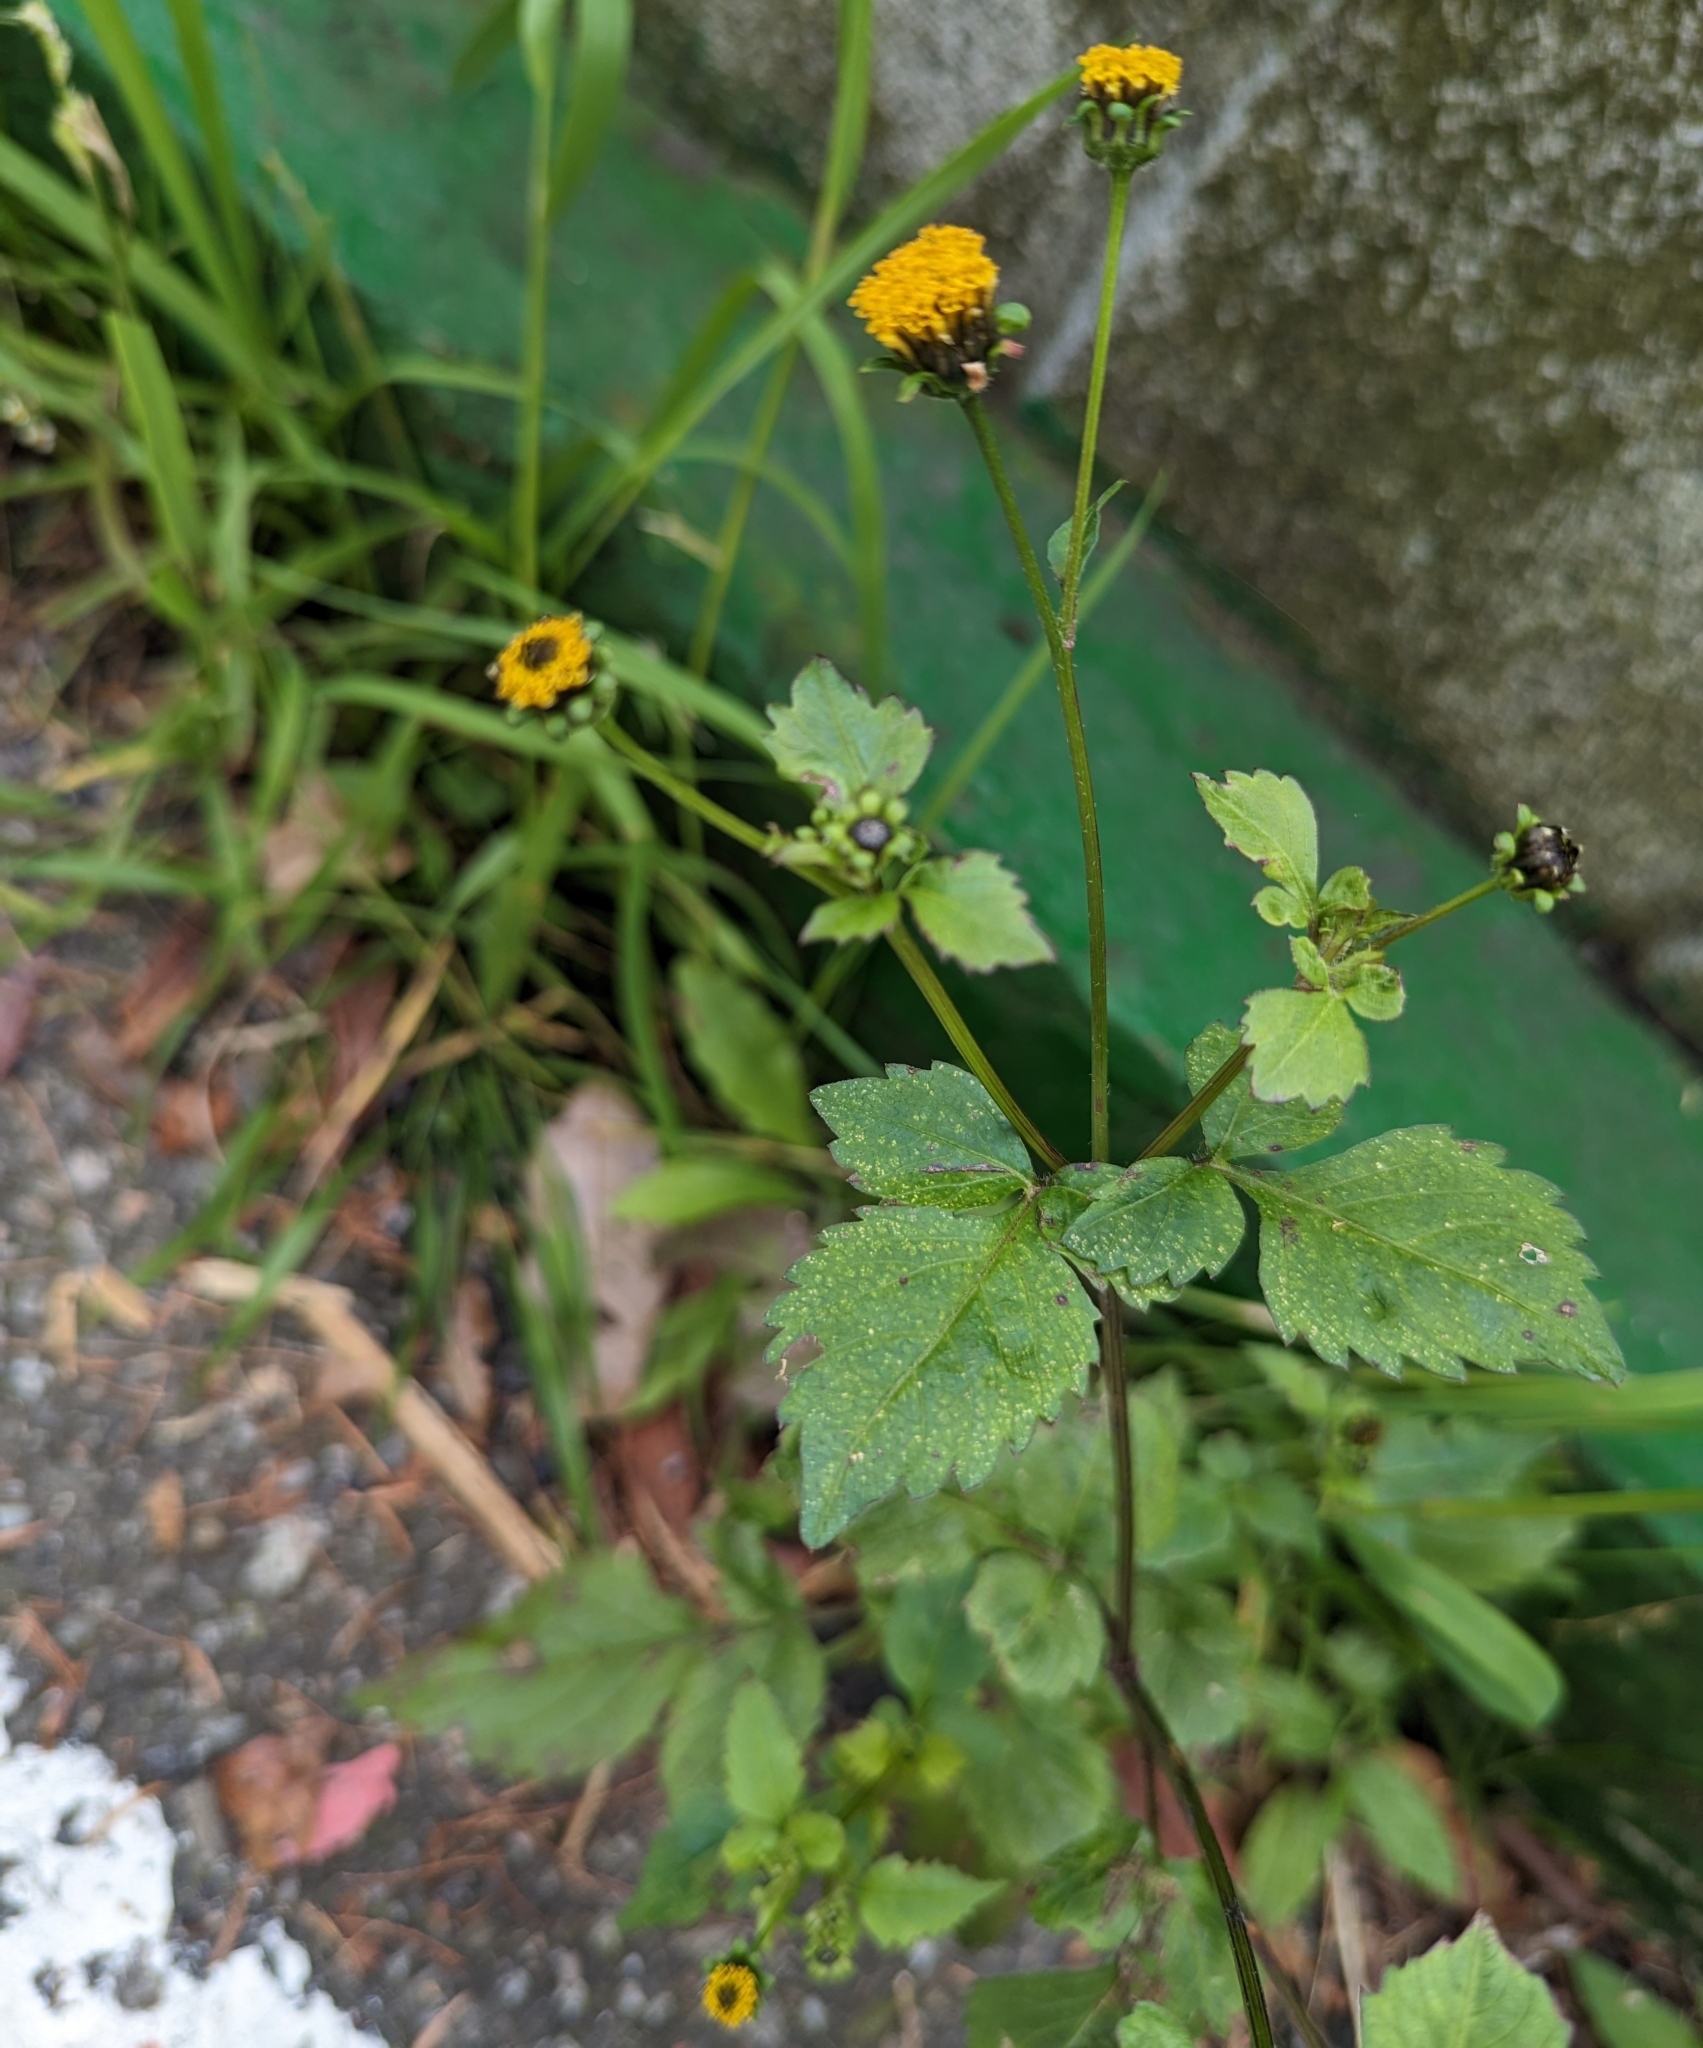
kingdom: Plantae
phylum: Tracheophyta
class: Magnoliopsida
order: Asterales
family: Asteraceae
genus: Bidens
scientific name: Bidens pilosa
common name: Black-jack
